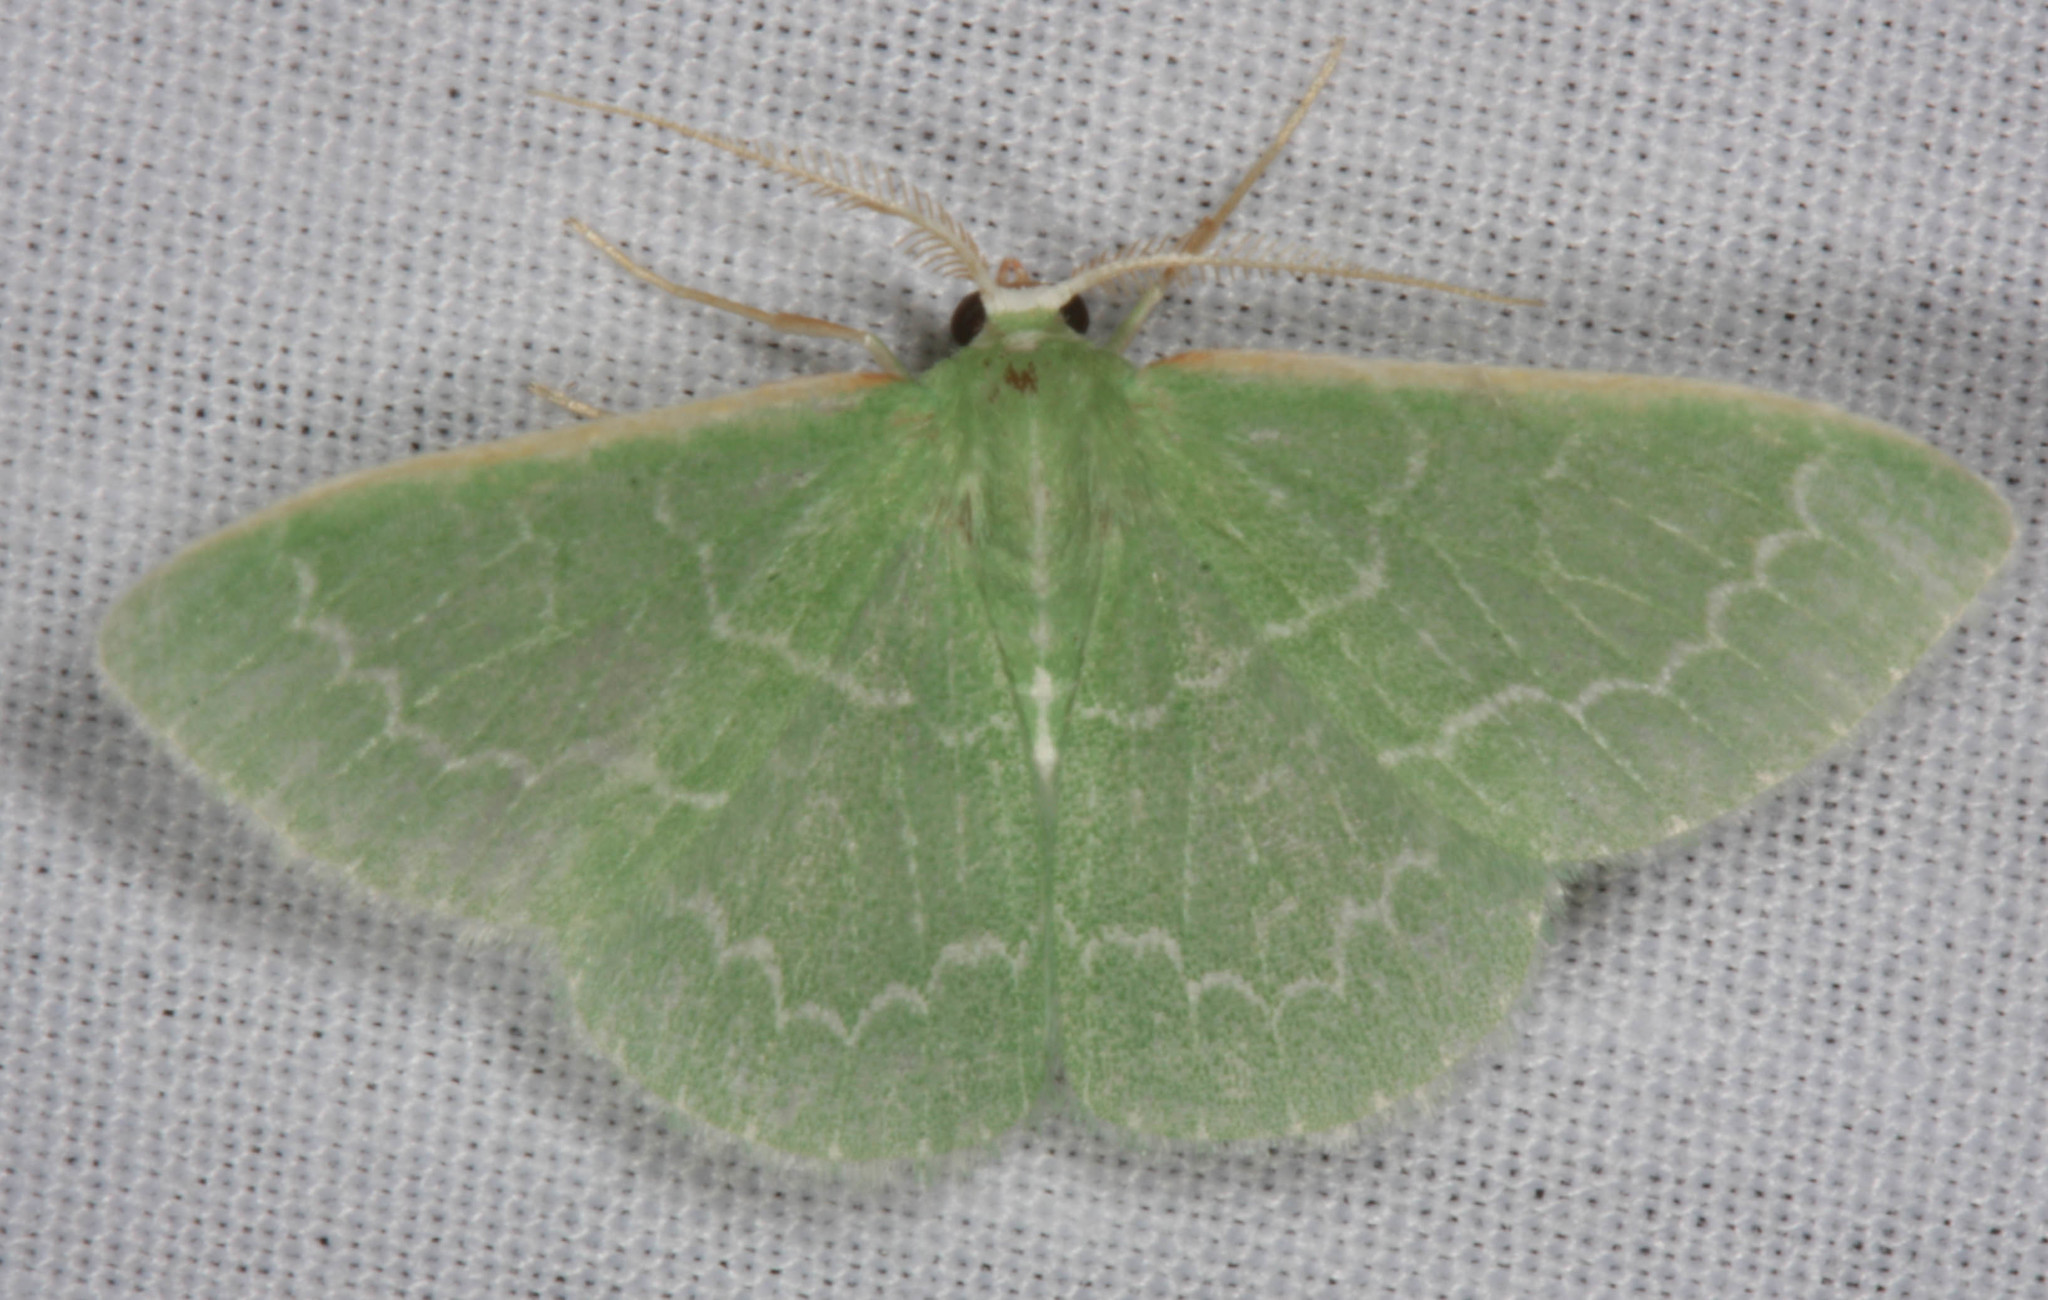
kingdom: Animalia
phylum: Arthropoda
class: Insecta
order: Lepidoptera
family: Geometridae
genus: Synchlora
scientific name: Synchlora aerata
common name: Wavy-lined emerald
